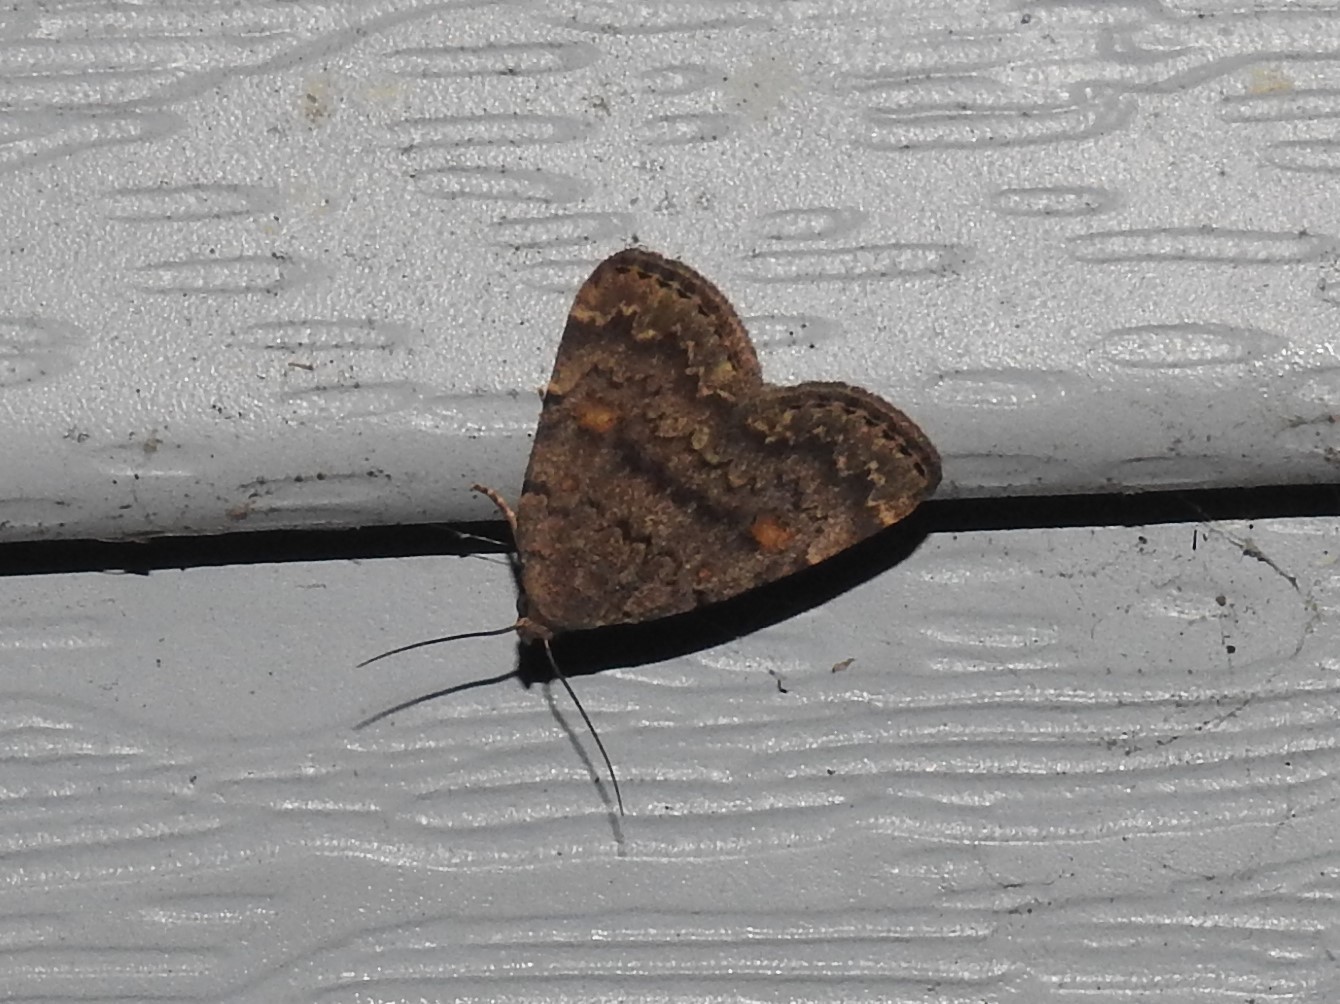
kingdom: Animalia
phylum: Arthropoda
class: Insecta
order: Lepidoptera
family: Erebidae
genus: Idia
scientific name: Idia aemula
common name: Common idia moth
